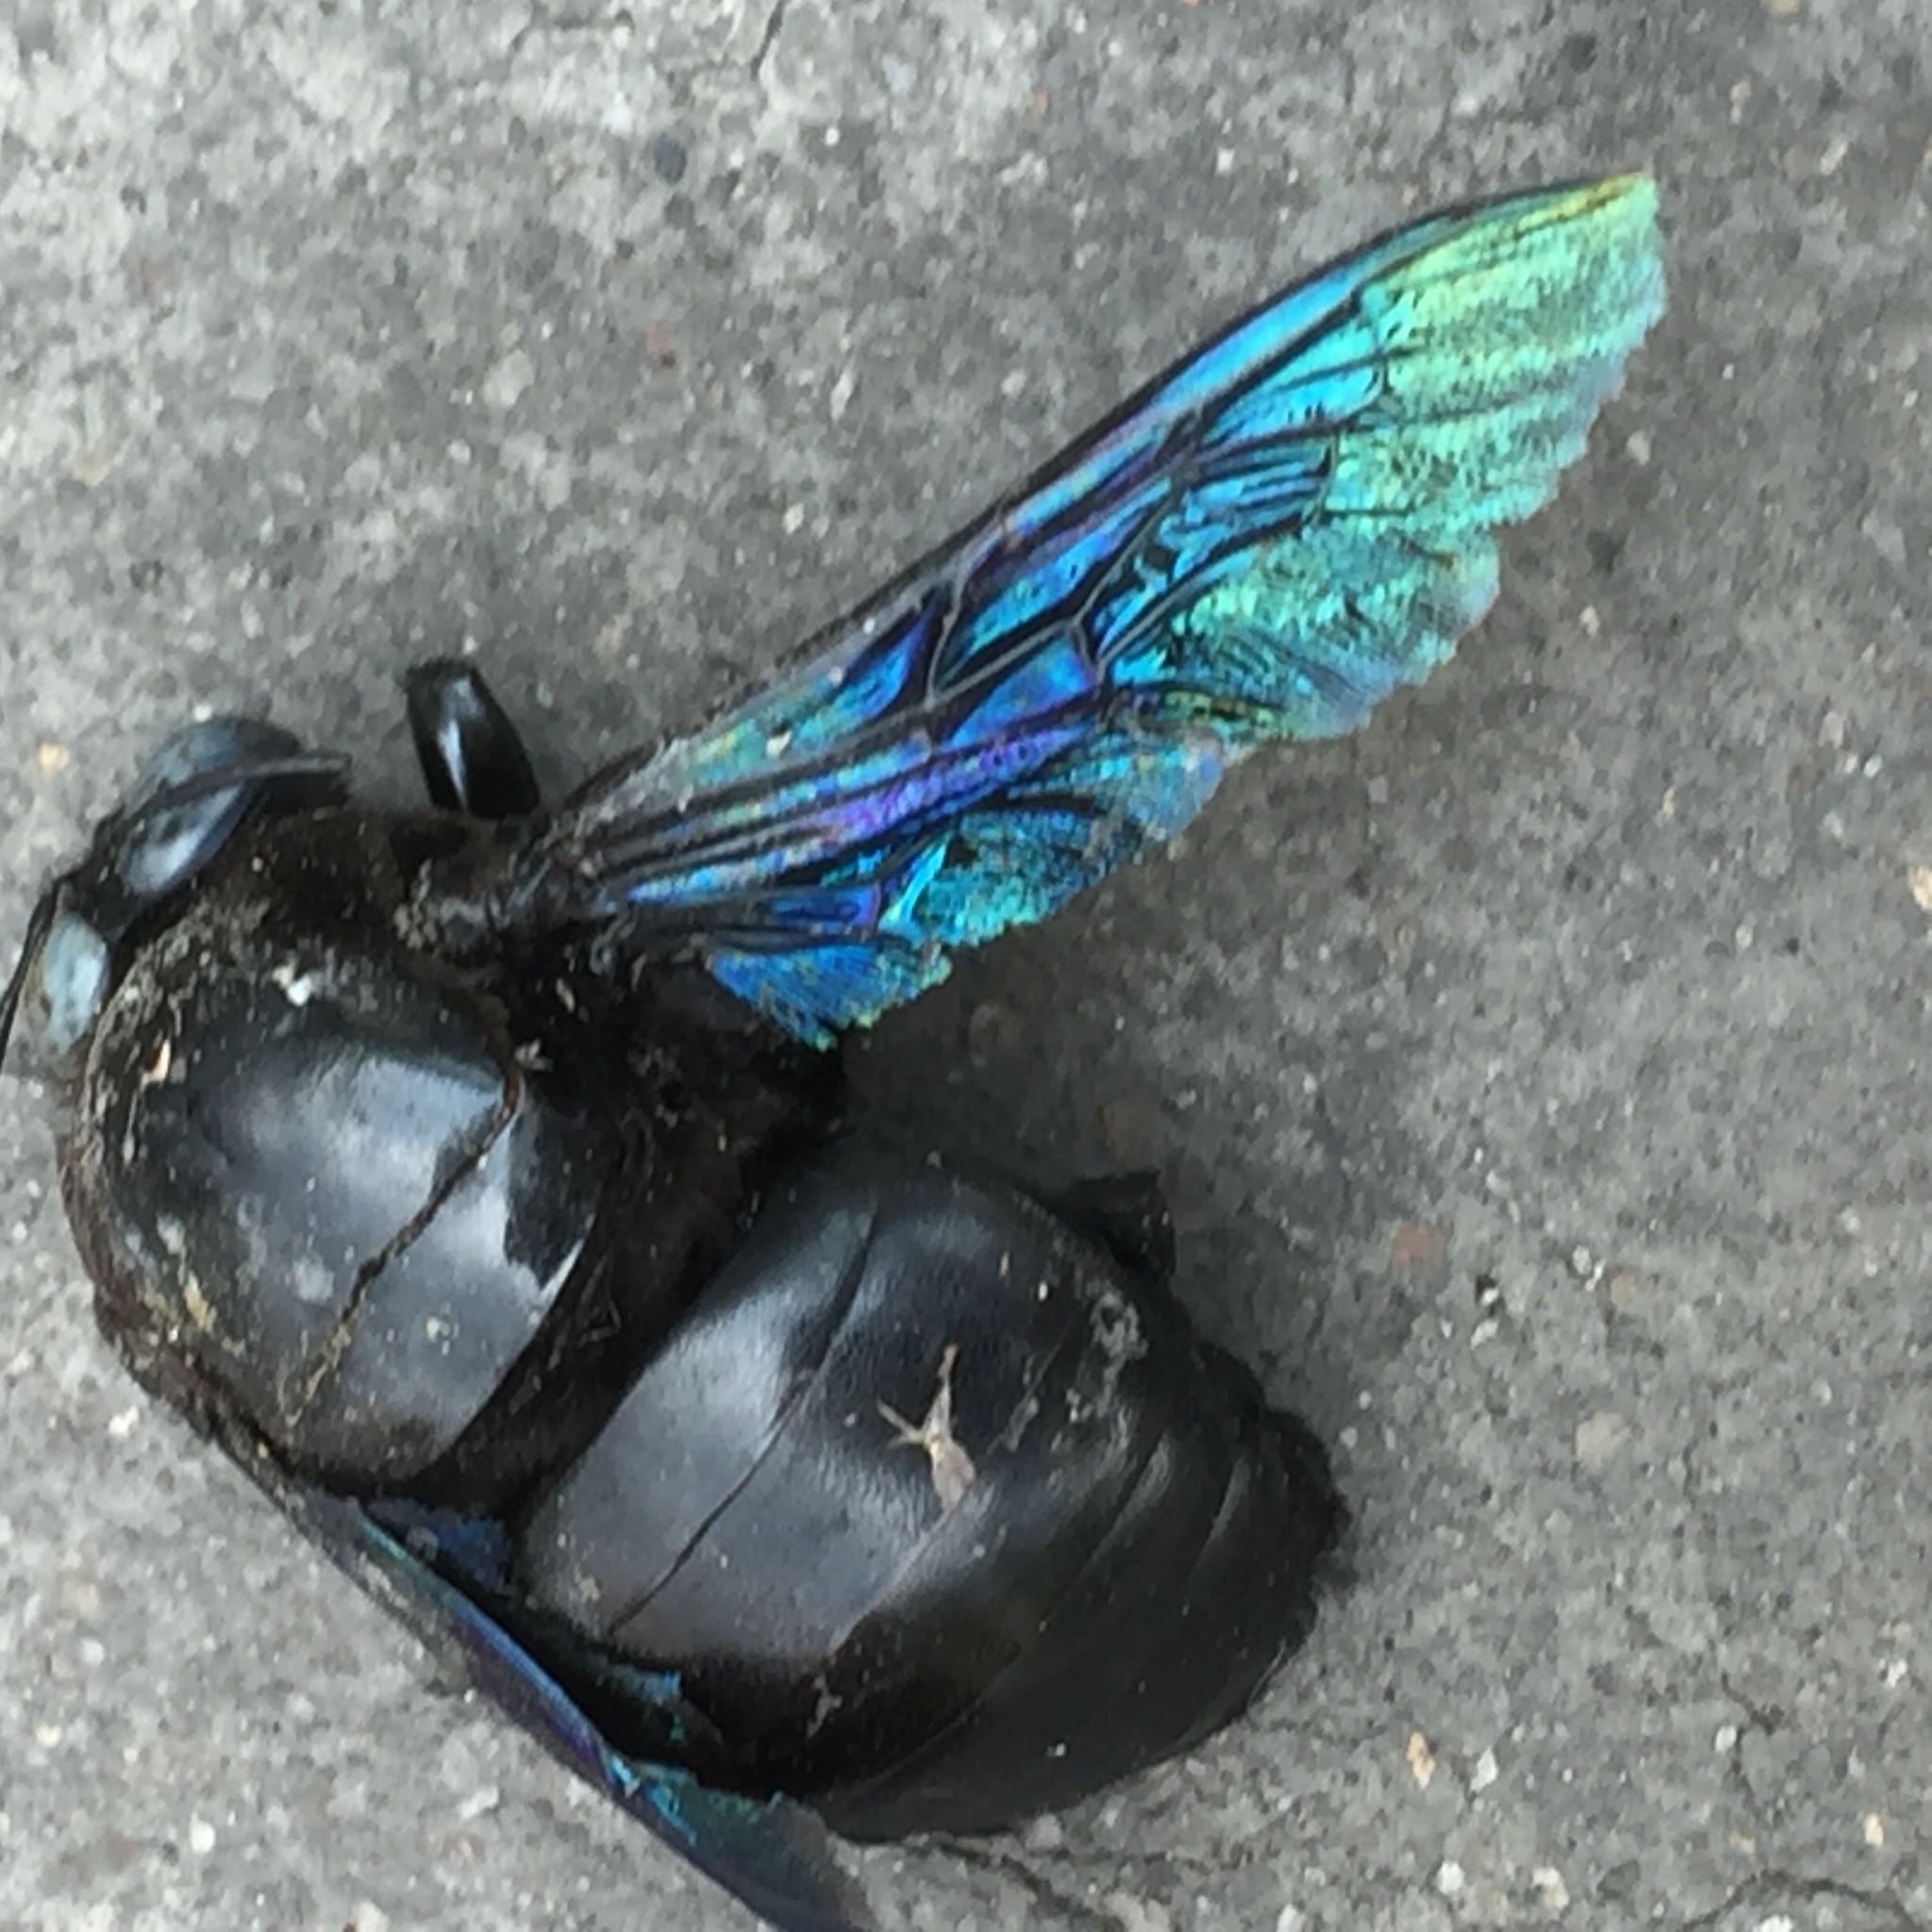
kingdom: Animalia
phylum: Arthropoda
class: Insecta
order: Hymenoptera
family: Apidae
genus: Xylocopa
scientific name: Xylocopa tenuiscapa
